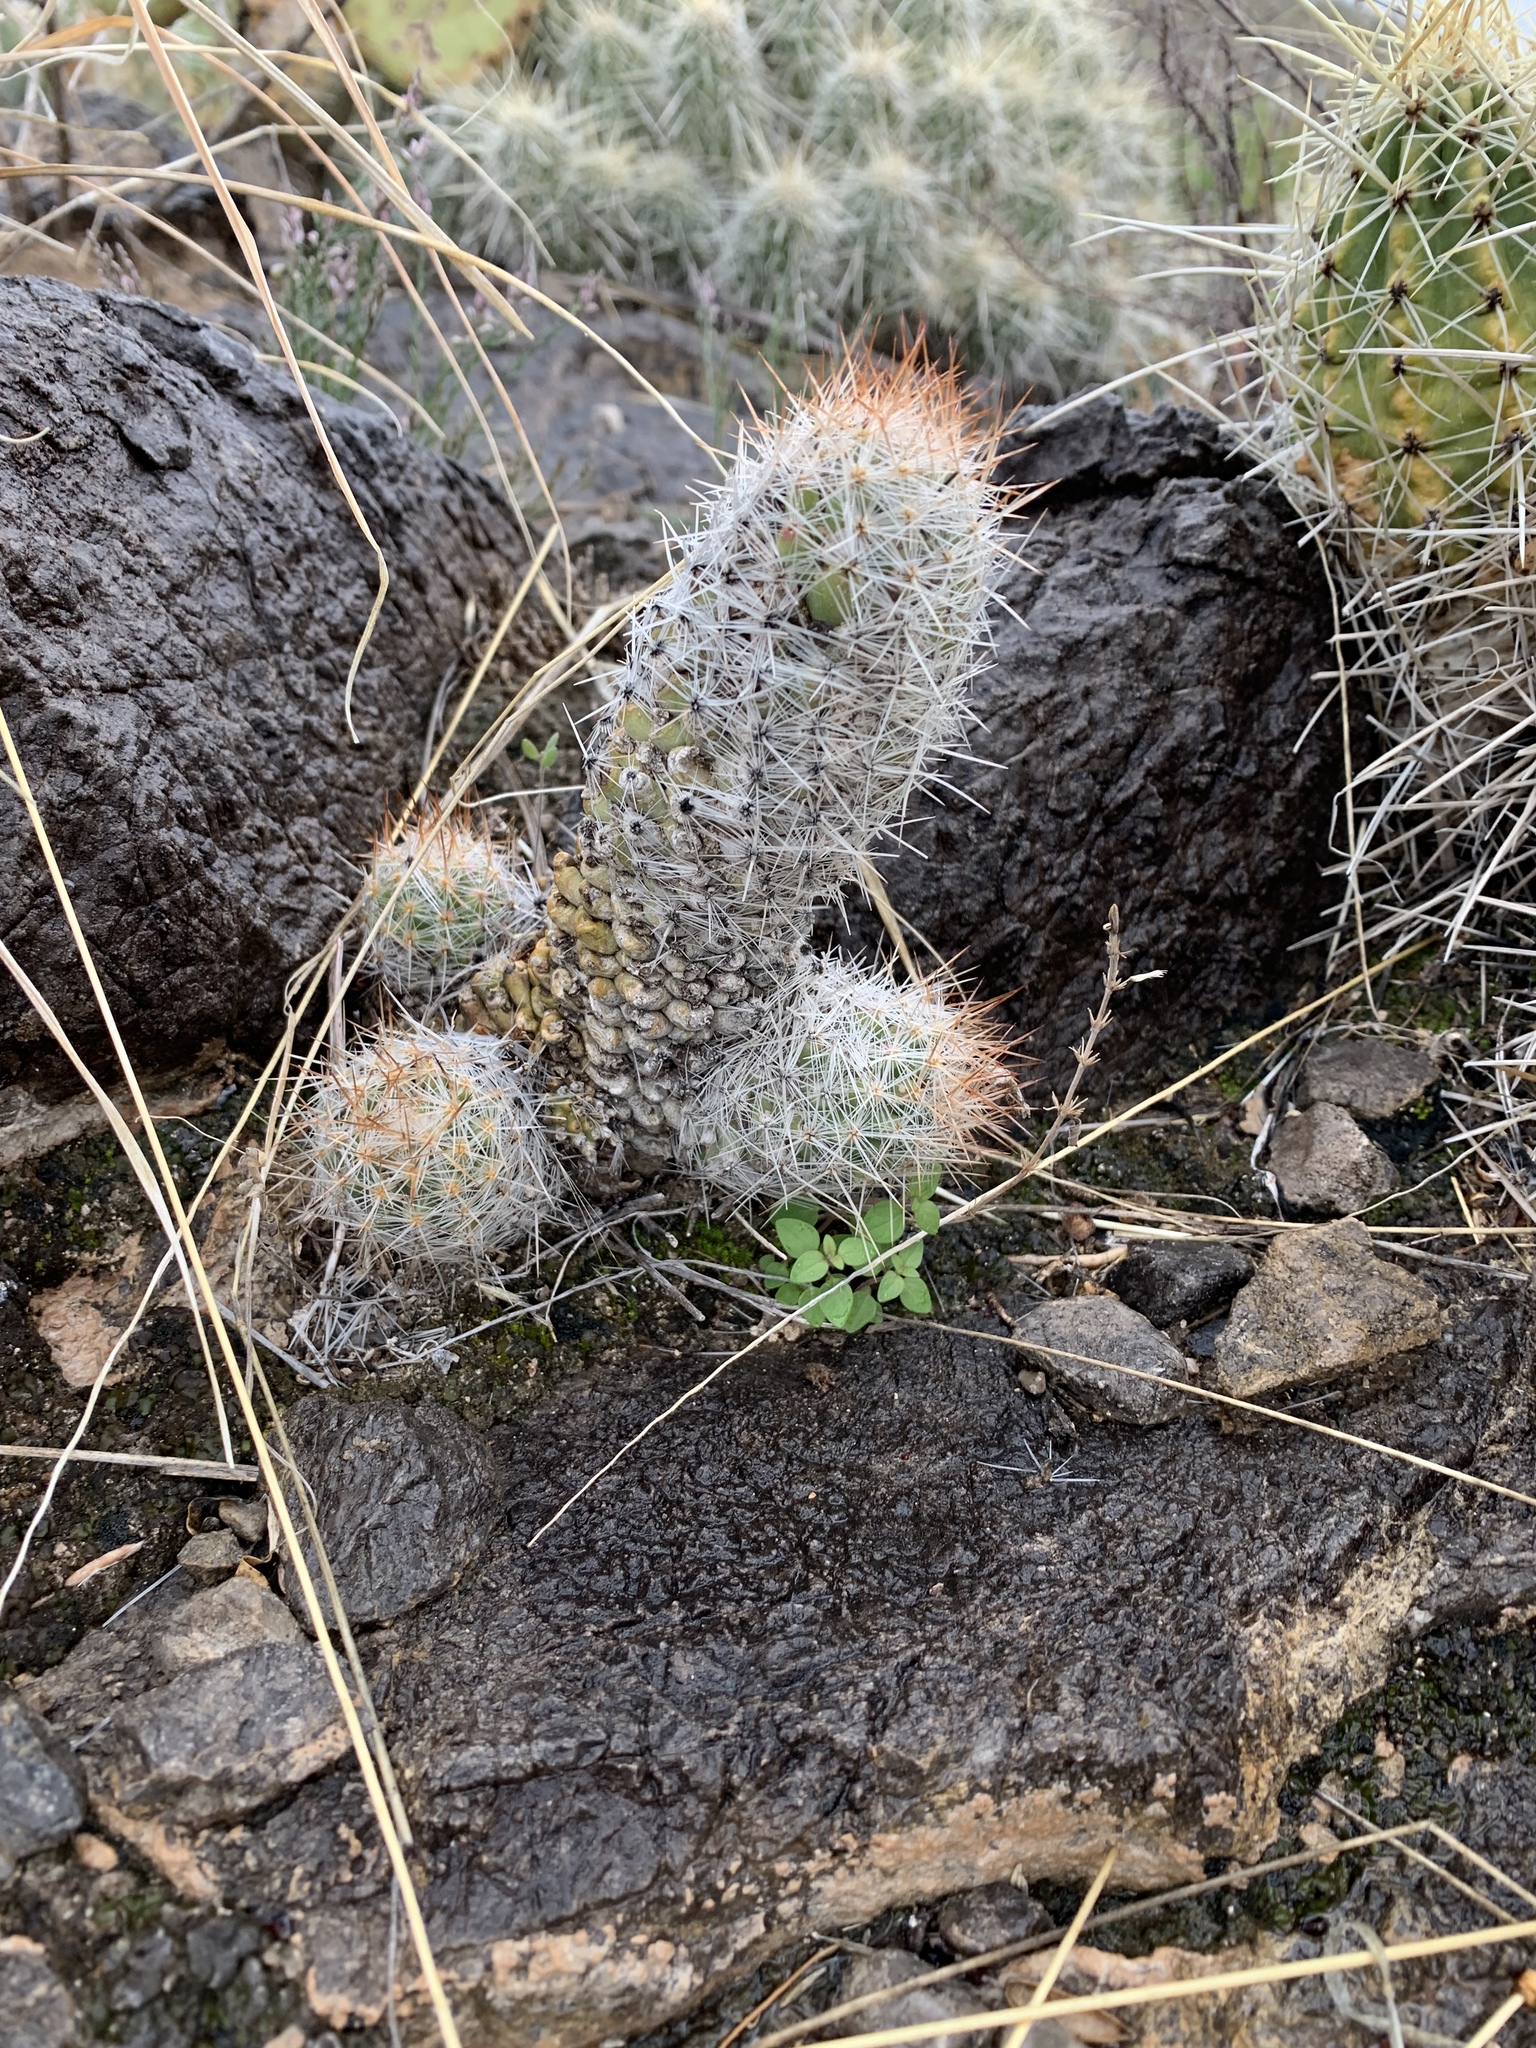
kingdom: Plantae
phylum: Tracheophyta
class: Magnoliopsida
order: Caryophyllales
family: Cactaceae
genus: Pelecyphora
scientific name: Pelecyphora tuberculosa
